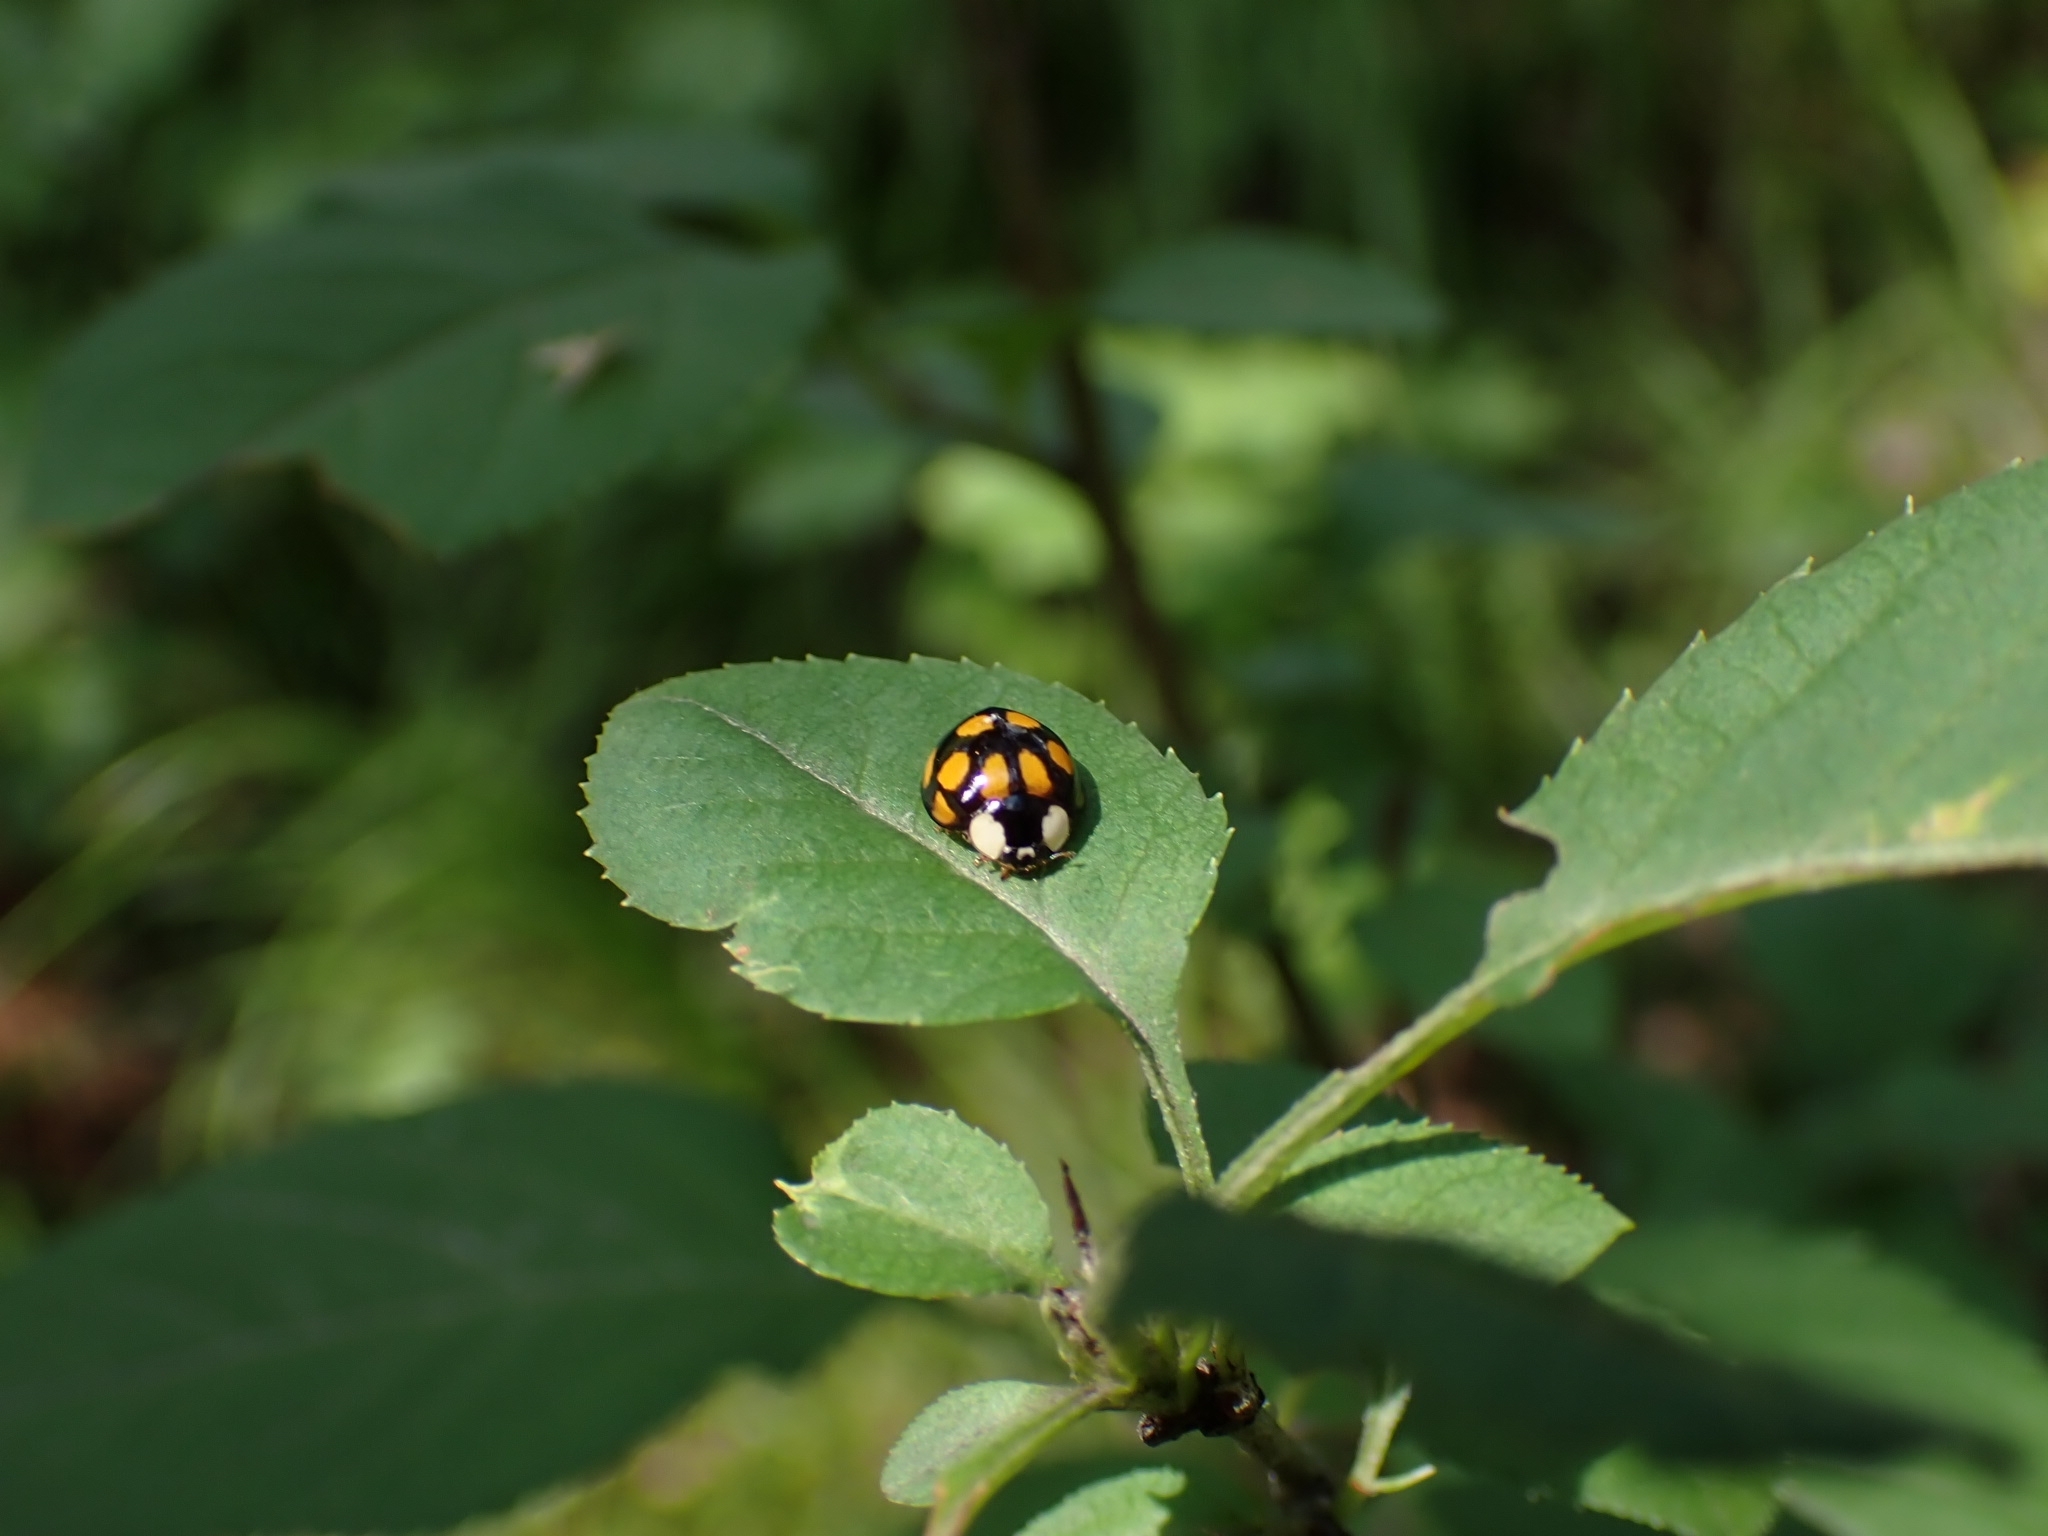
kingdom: Animalia
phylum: Arthropoda
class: Insecta
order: Coleoptera
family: Coccinellidae
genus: Harmonia
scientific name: Harmonia axyridis
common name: Harlequin ladybird
